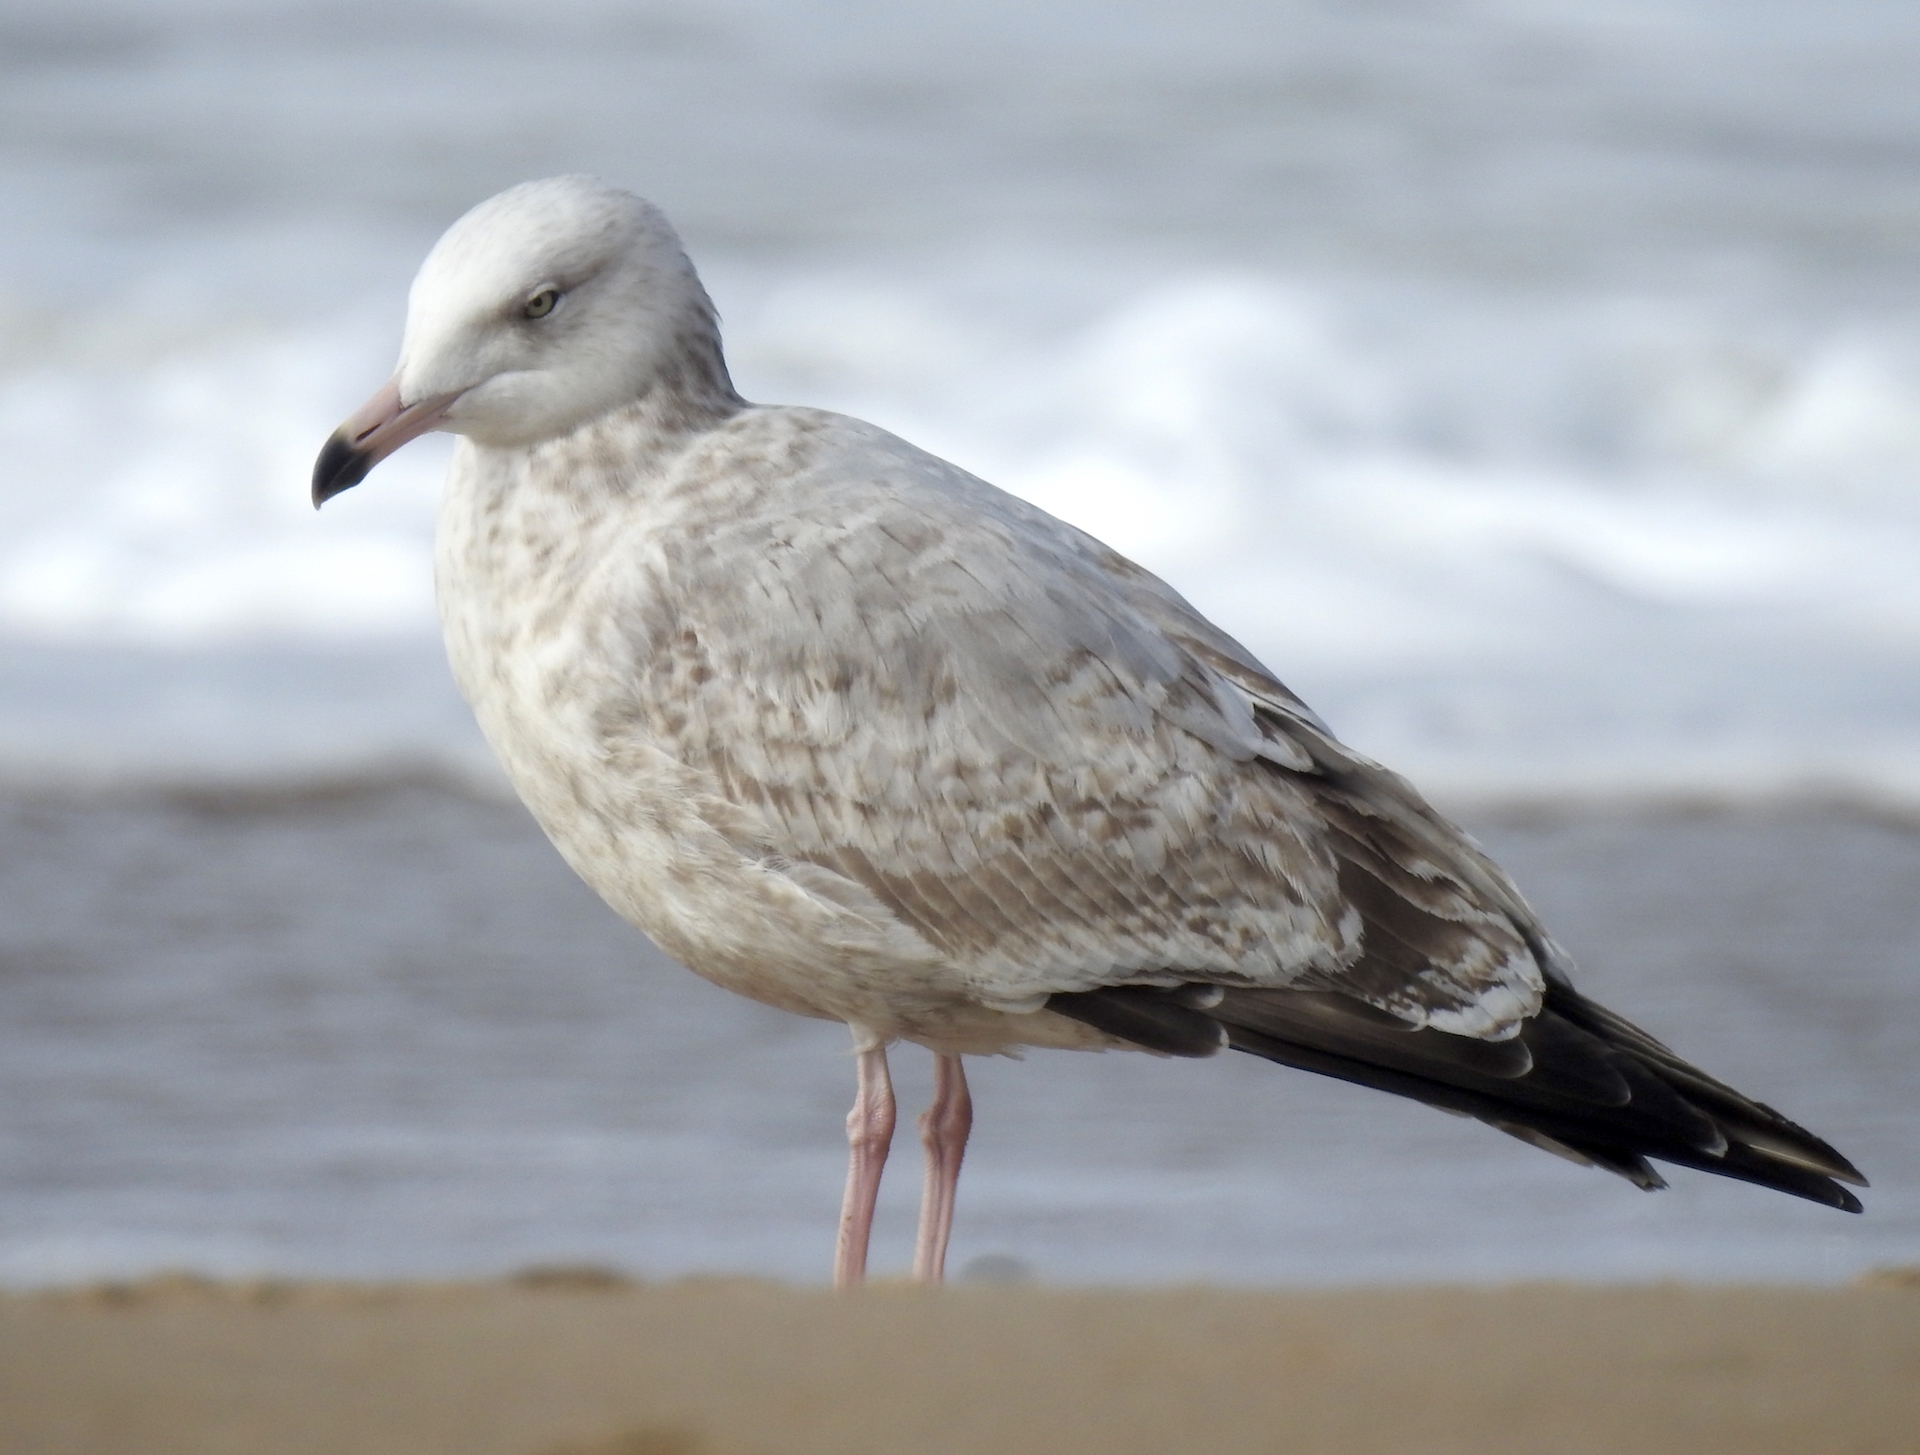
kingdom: Animalia
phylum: Chordata
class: Aves
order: Charadriiformes
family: Laridae
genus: Larus
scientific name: Larus argentatus
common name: Herring gull
